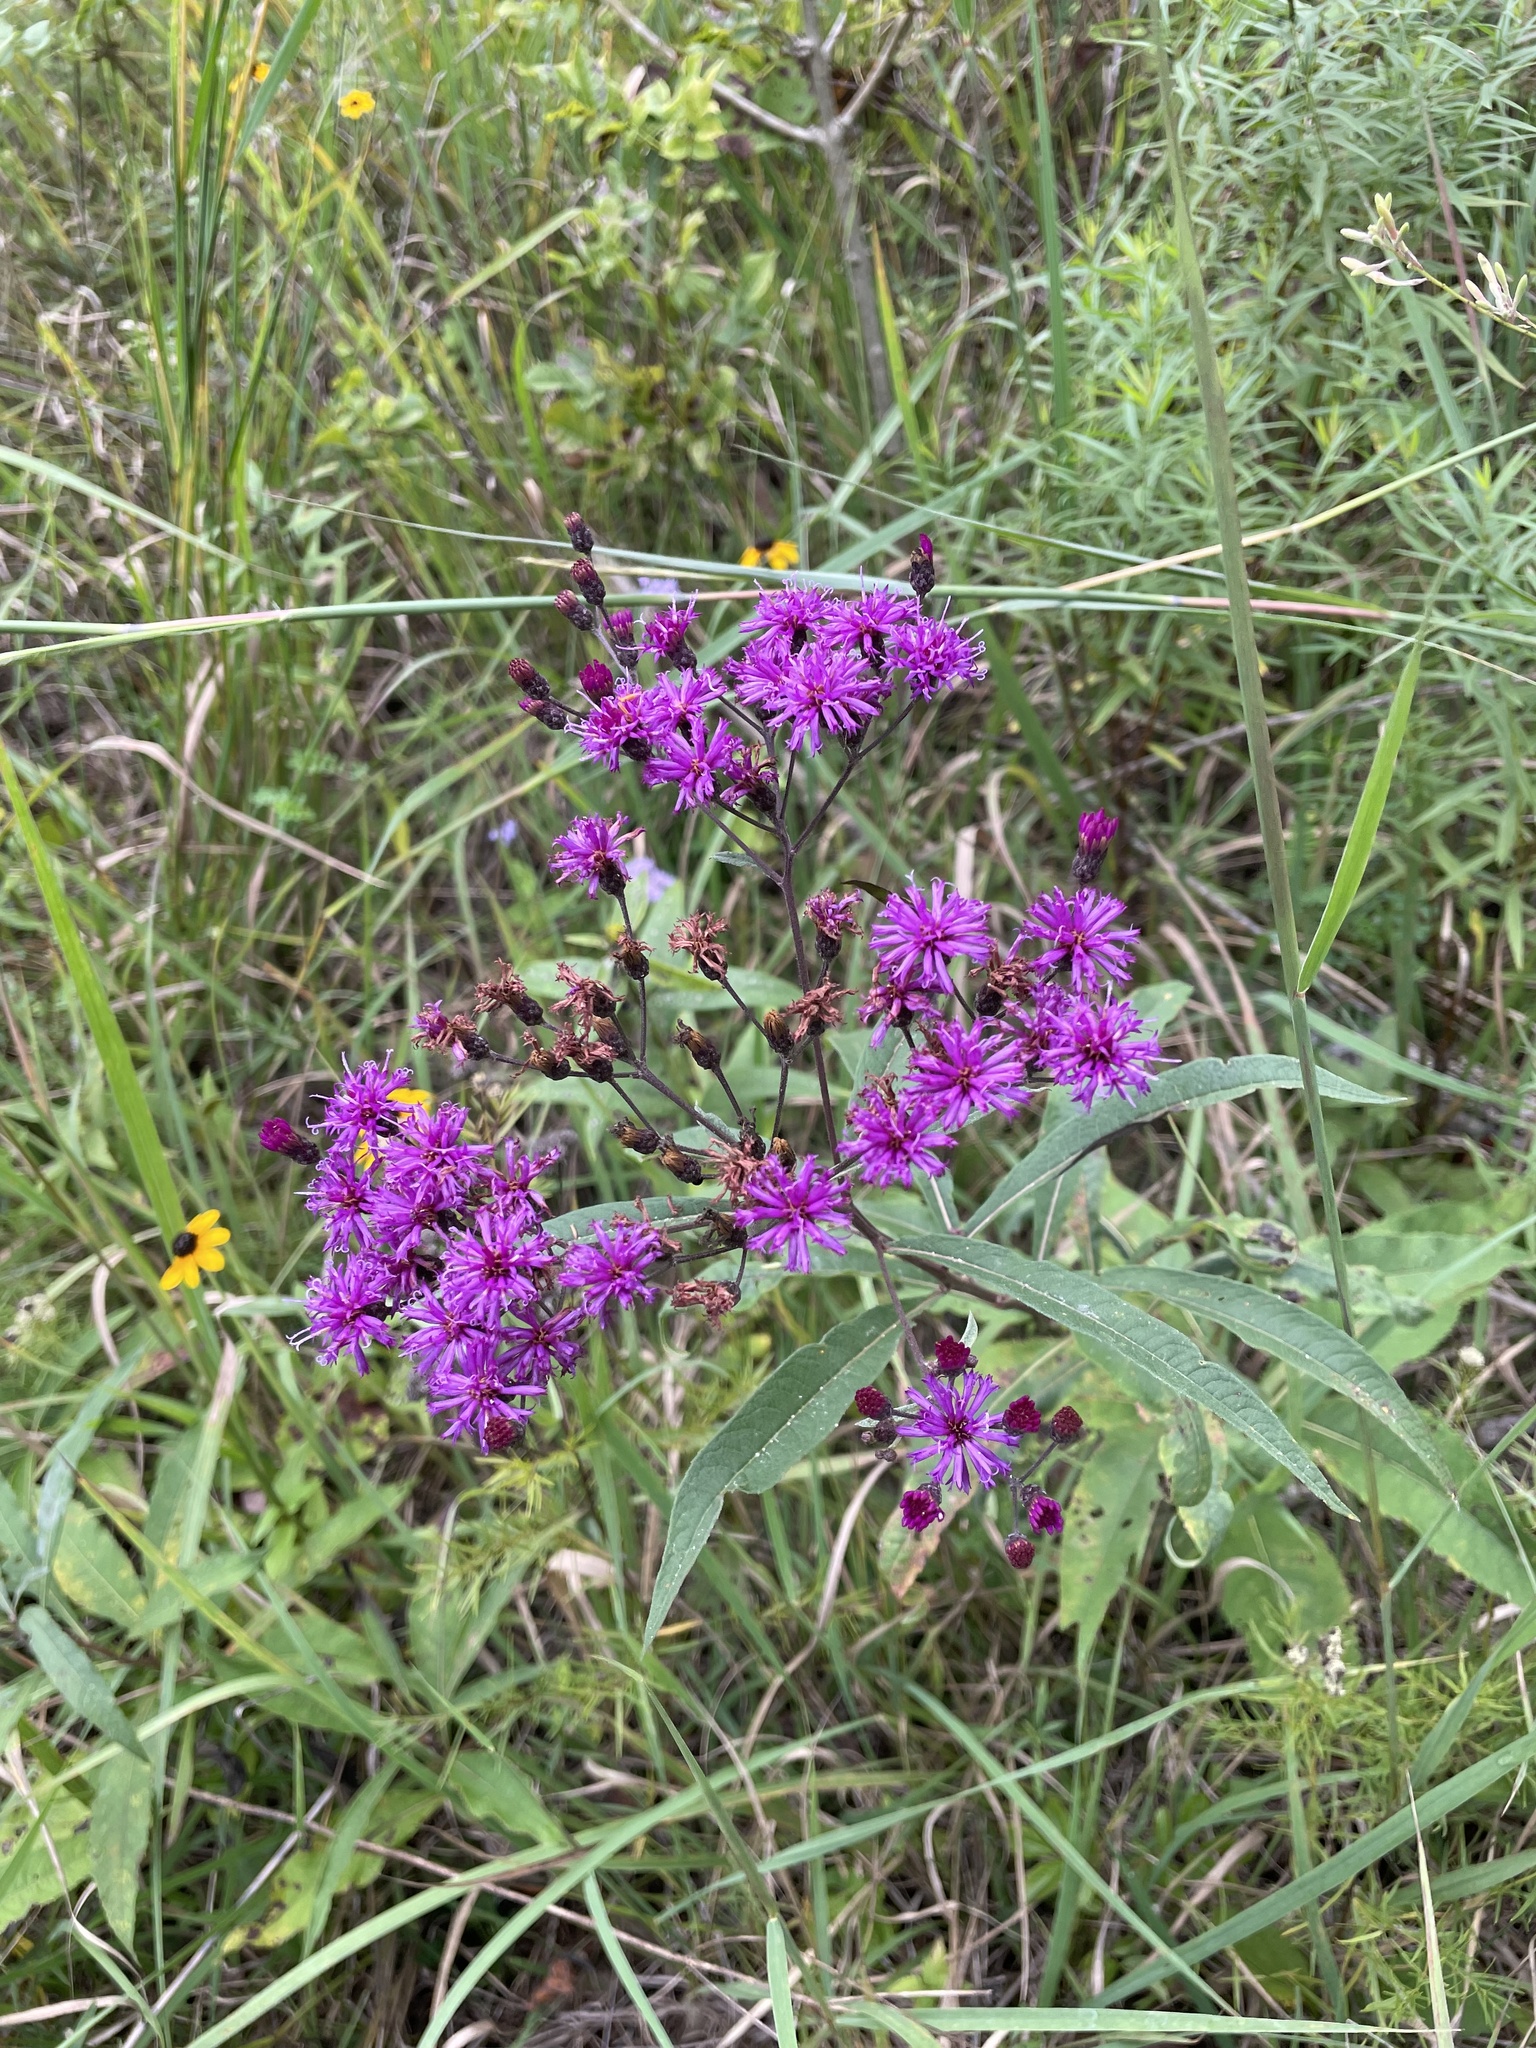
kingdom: Plantae
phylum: Tracheophyta
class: Magnoliopsida
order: Asterales
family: Asteraceae
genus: Vernonia
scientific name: Vernonia gigantea
